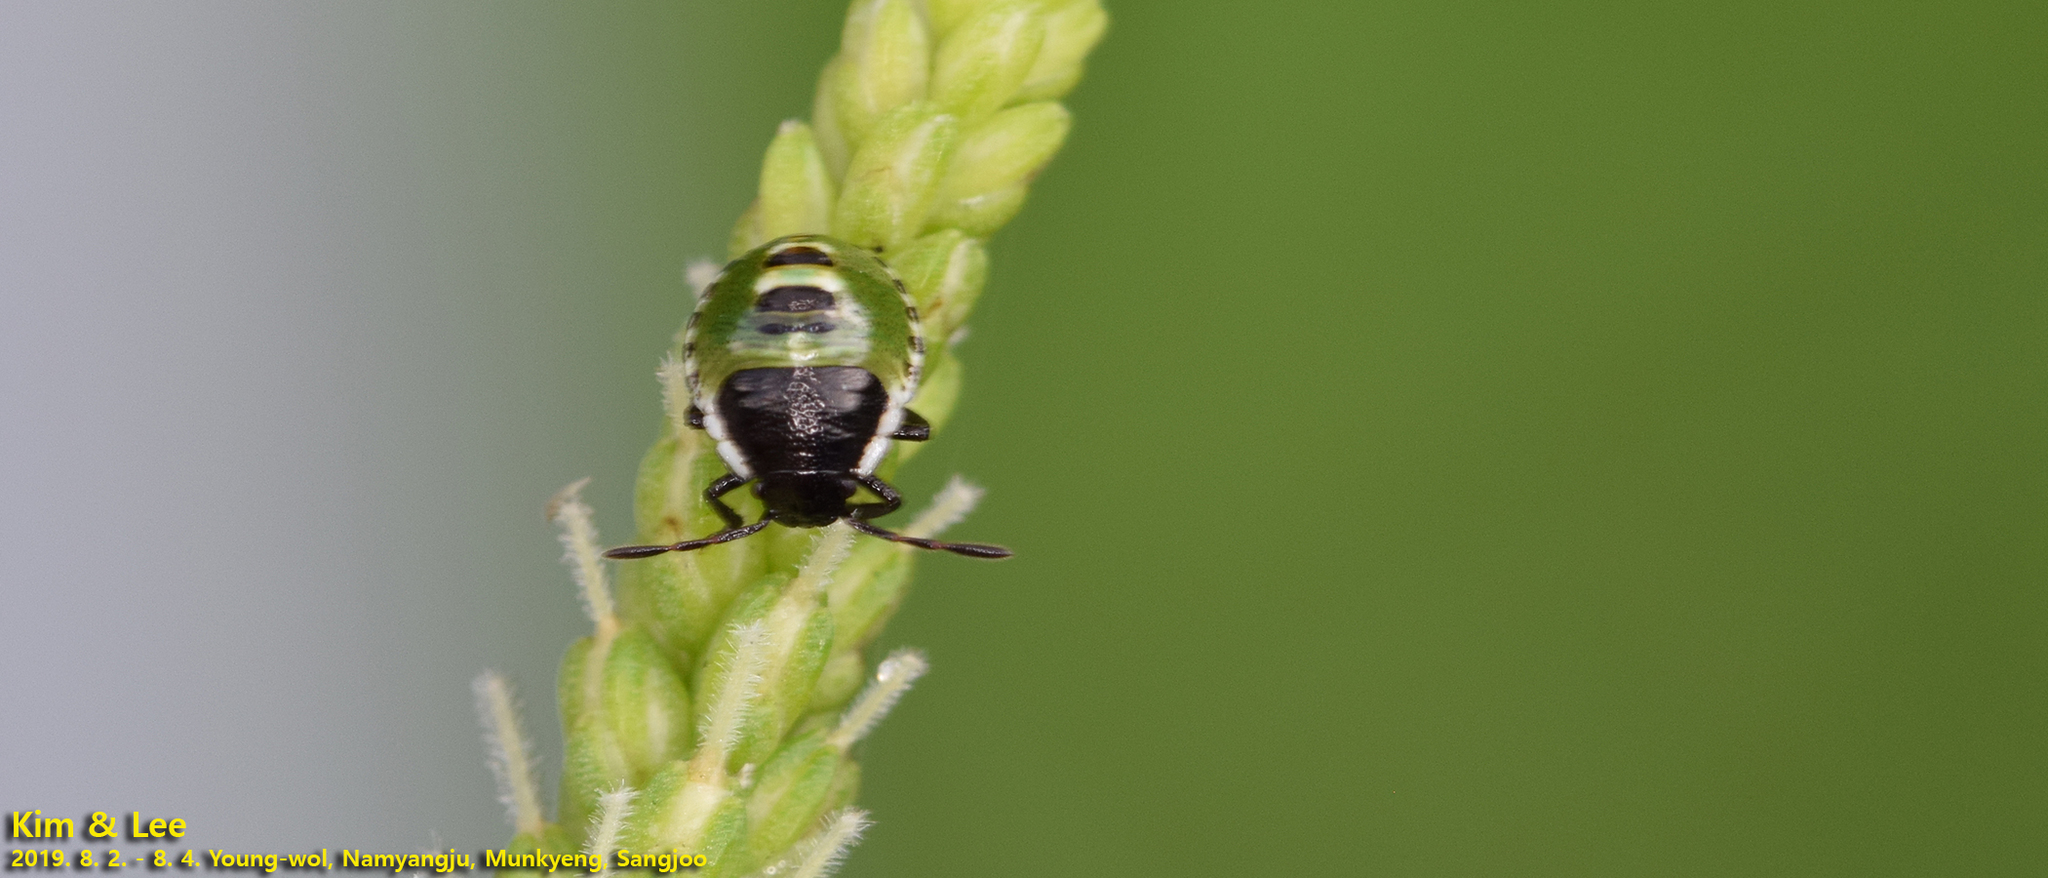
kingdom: Animalia
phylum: Arthropoda
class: Insecta
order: Hemiptera
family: Pentatomidae
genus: Palomena
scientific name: Palomena
